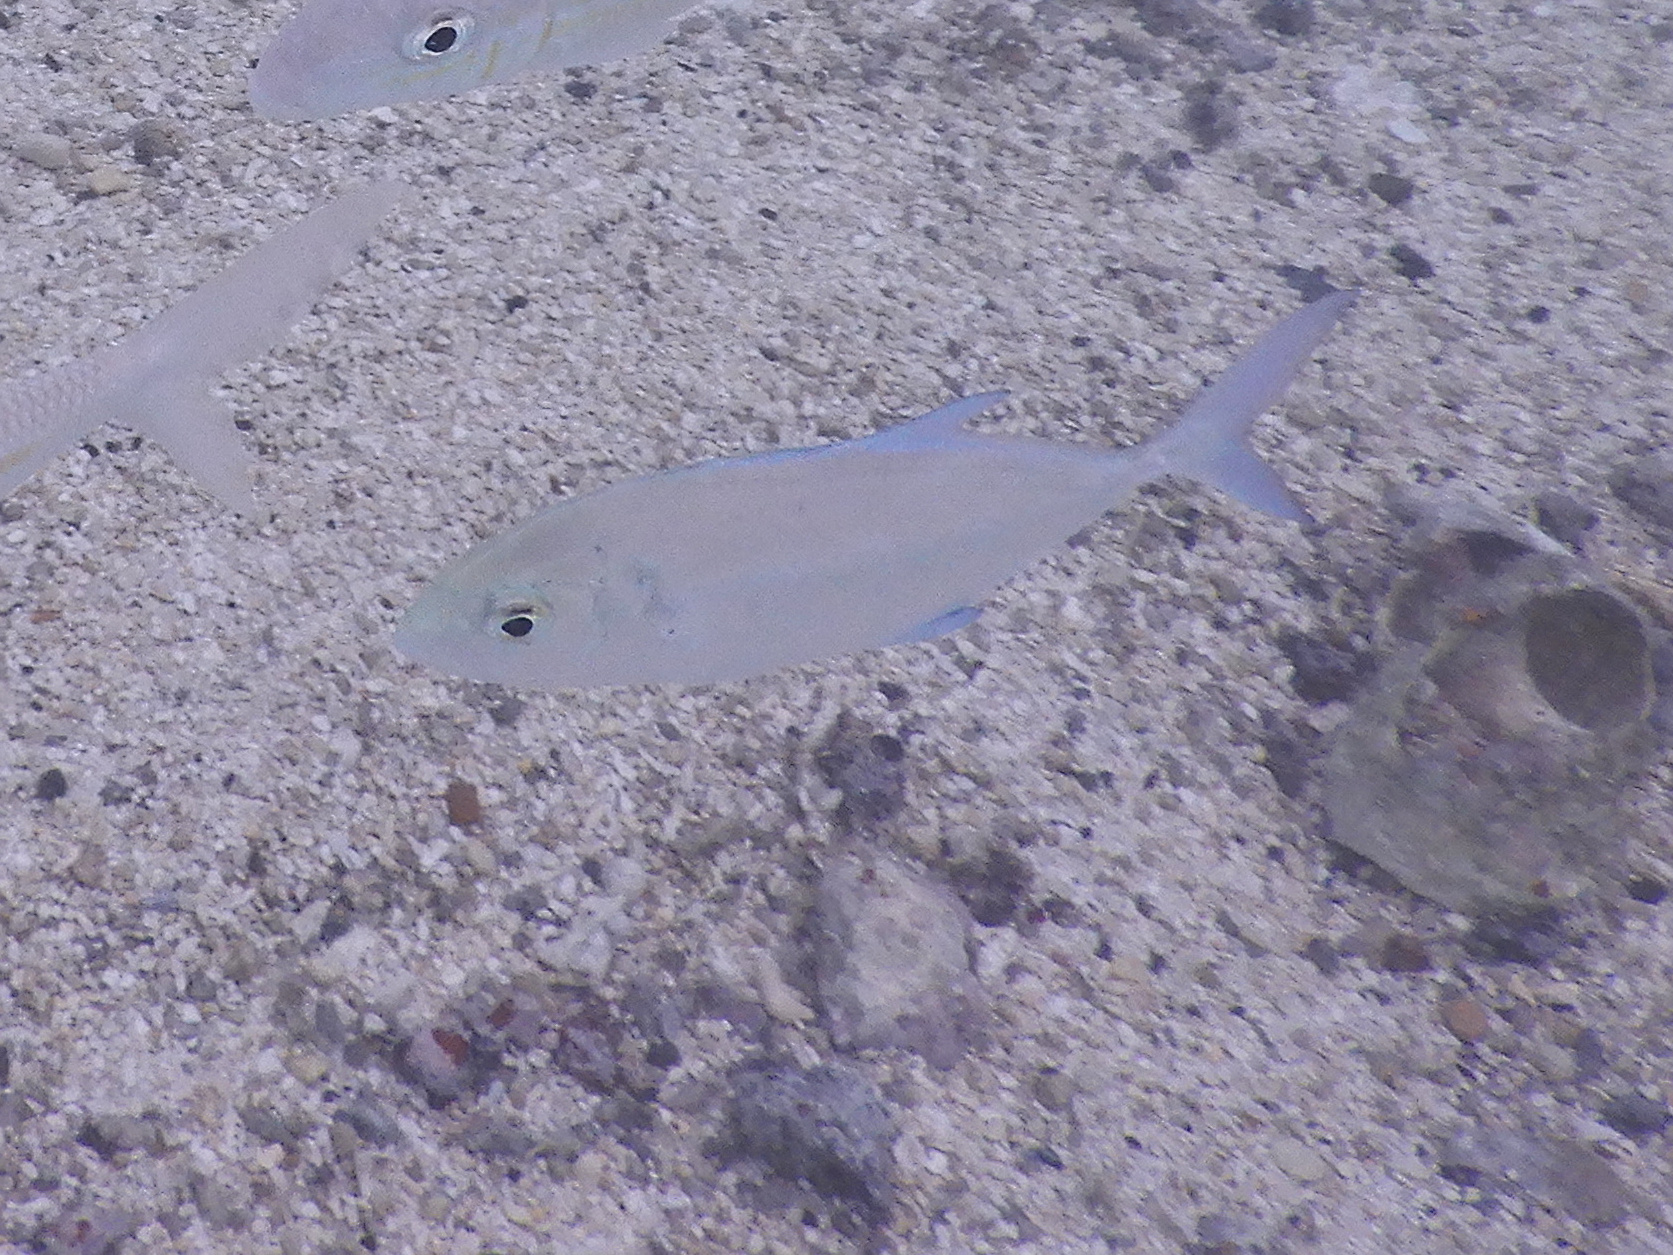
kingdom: Animalia
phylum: Chordata
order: Perciformes
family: Carangidae
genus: Caranx
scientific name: Caranx melampygus
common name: Bluefin trevally
